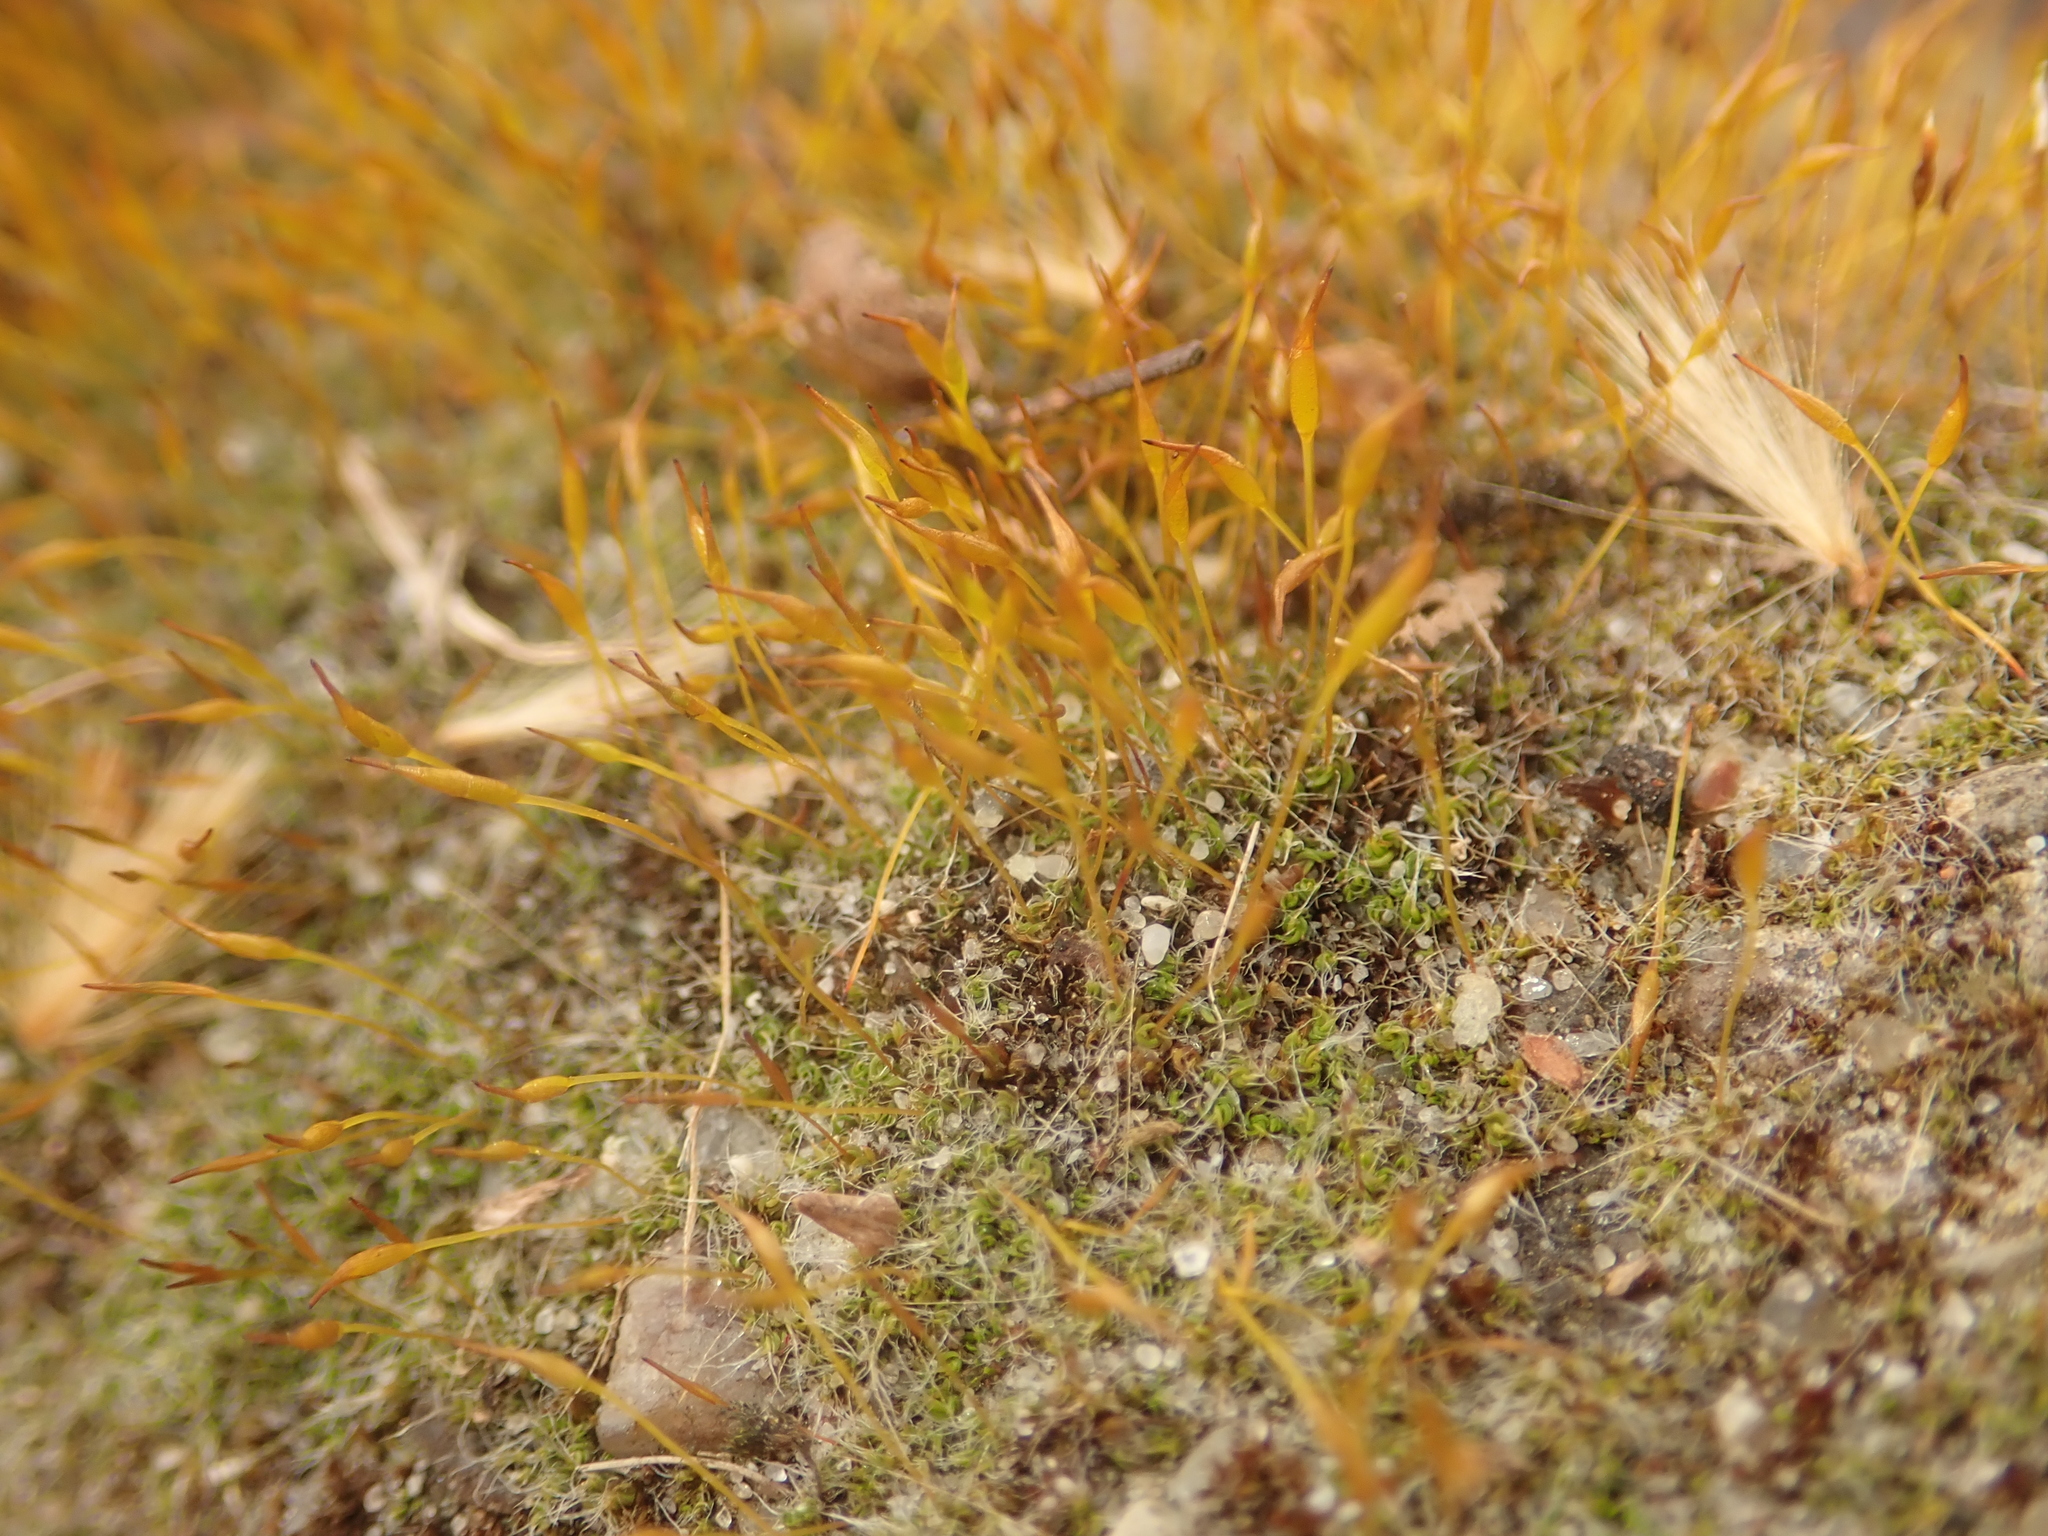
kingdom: Plantae
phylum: Bryophyta
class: Bryopsida
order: Pottiales
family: Pottiaceae
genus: Tortula
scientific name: Tortula muralis
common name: Wall screw-moss
